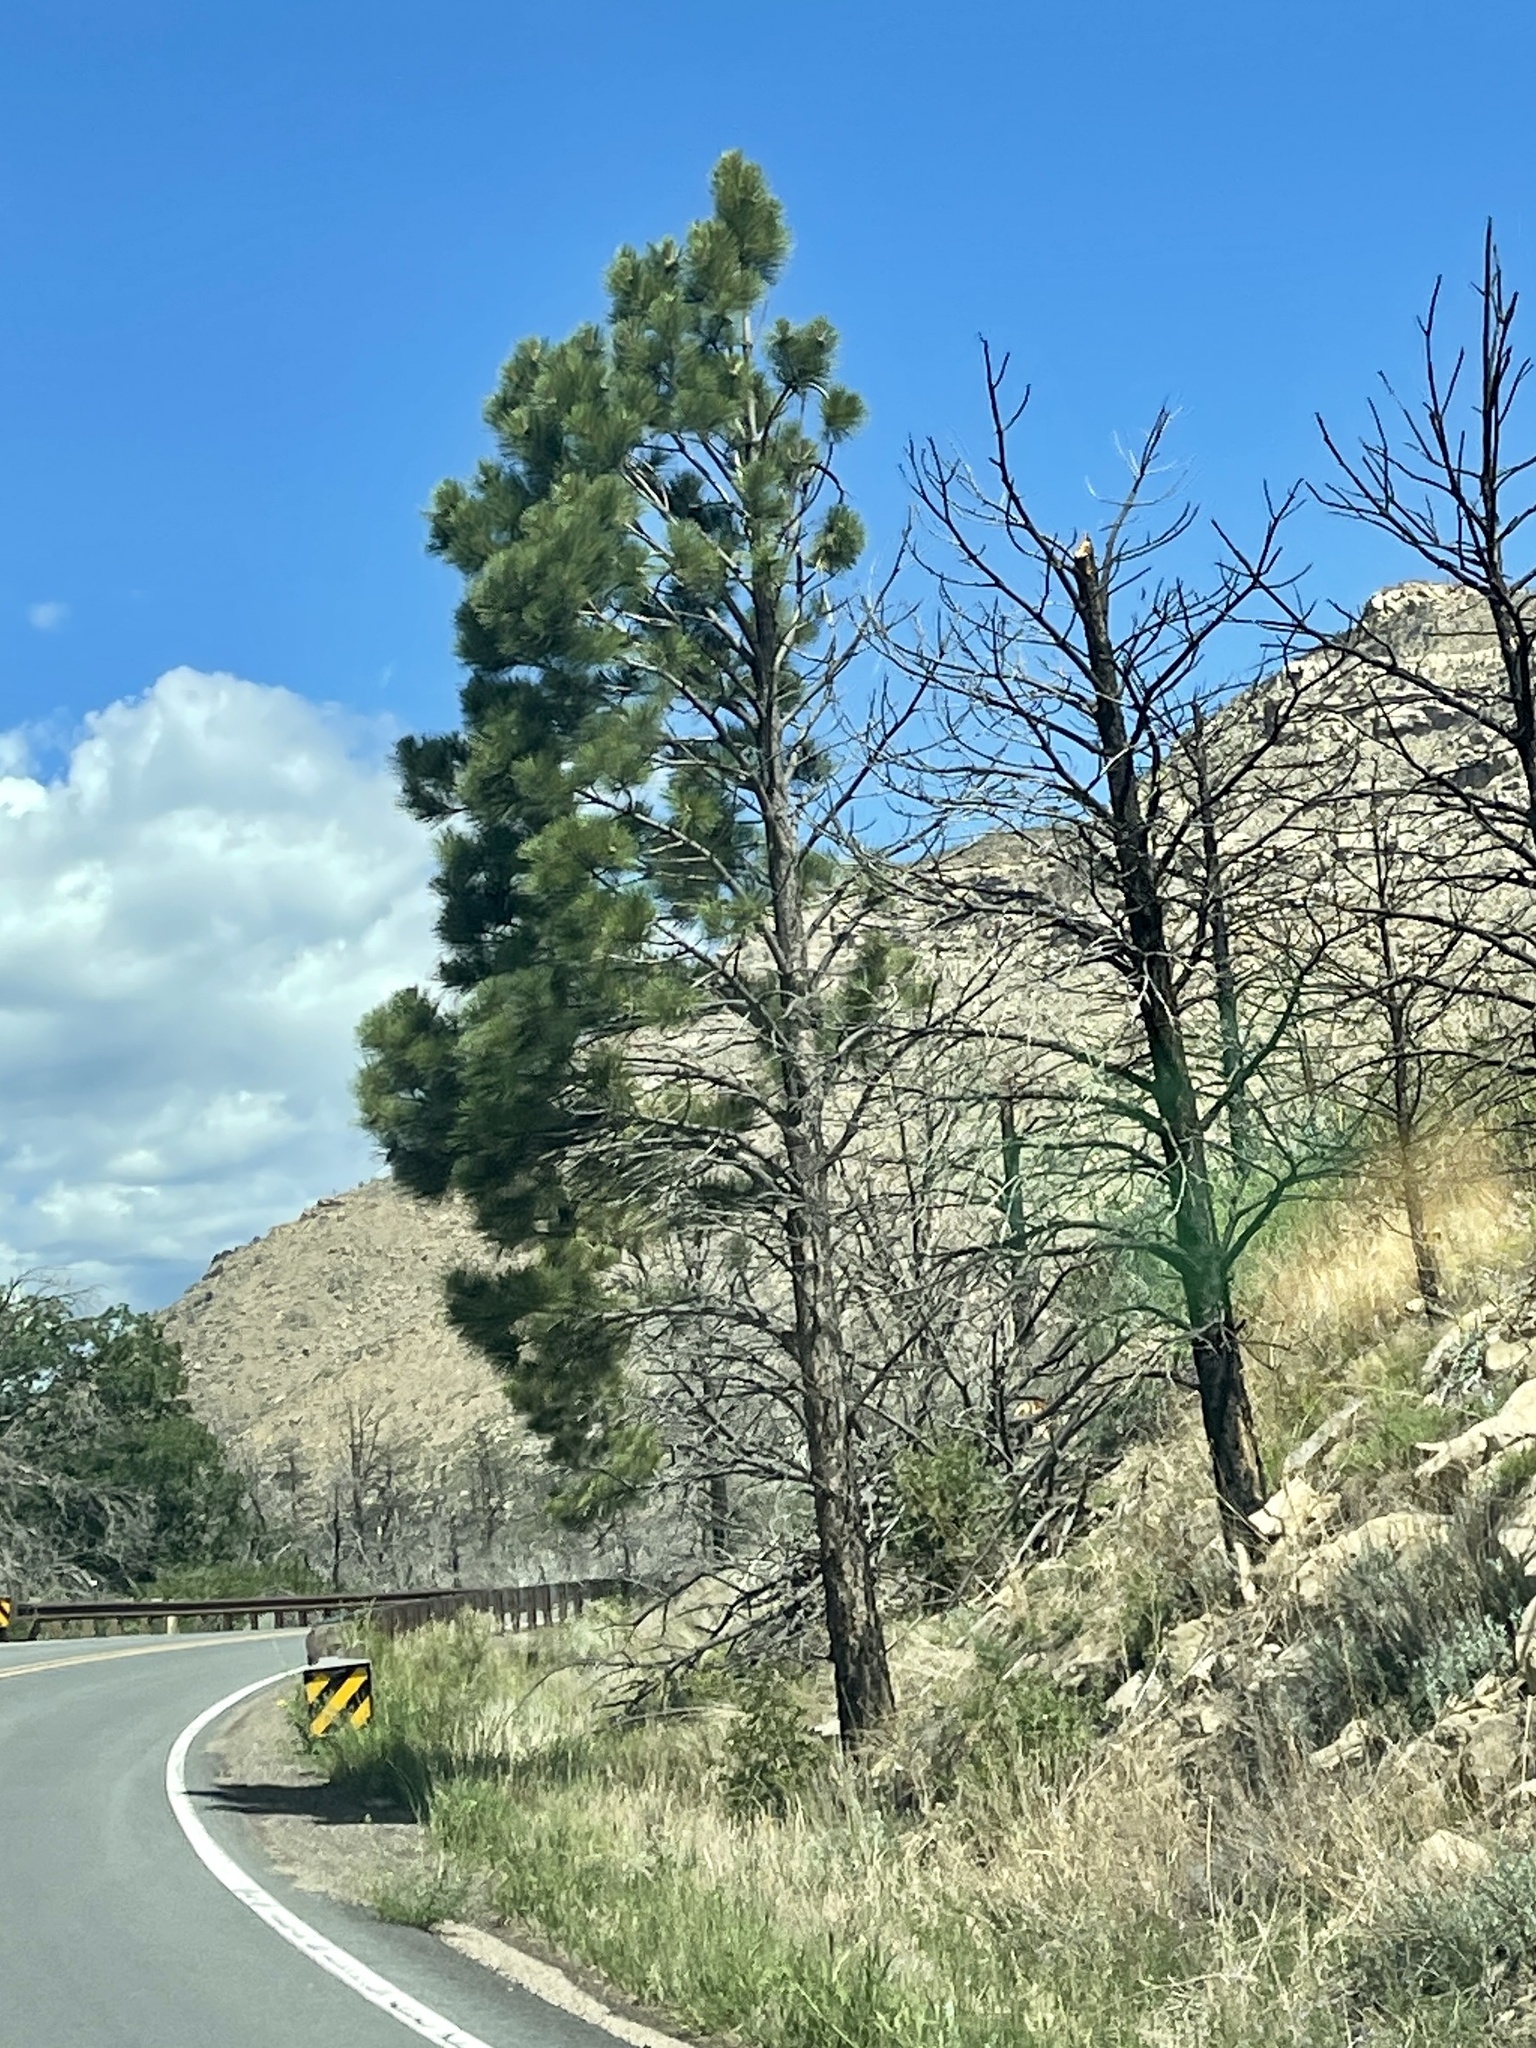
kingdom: Plantae
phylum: Tracheophyta
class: Pinopsida
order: Pinales
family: Pinaceae
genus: Pinus
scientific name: Pinus ponderosa
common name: Western yellow-pine
